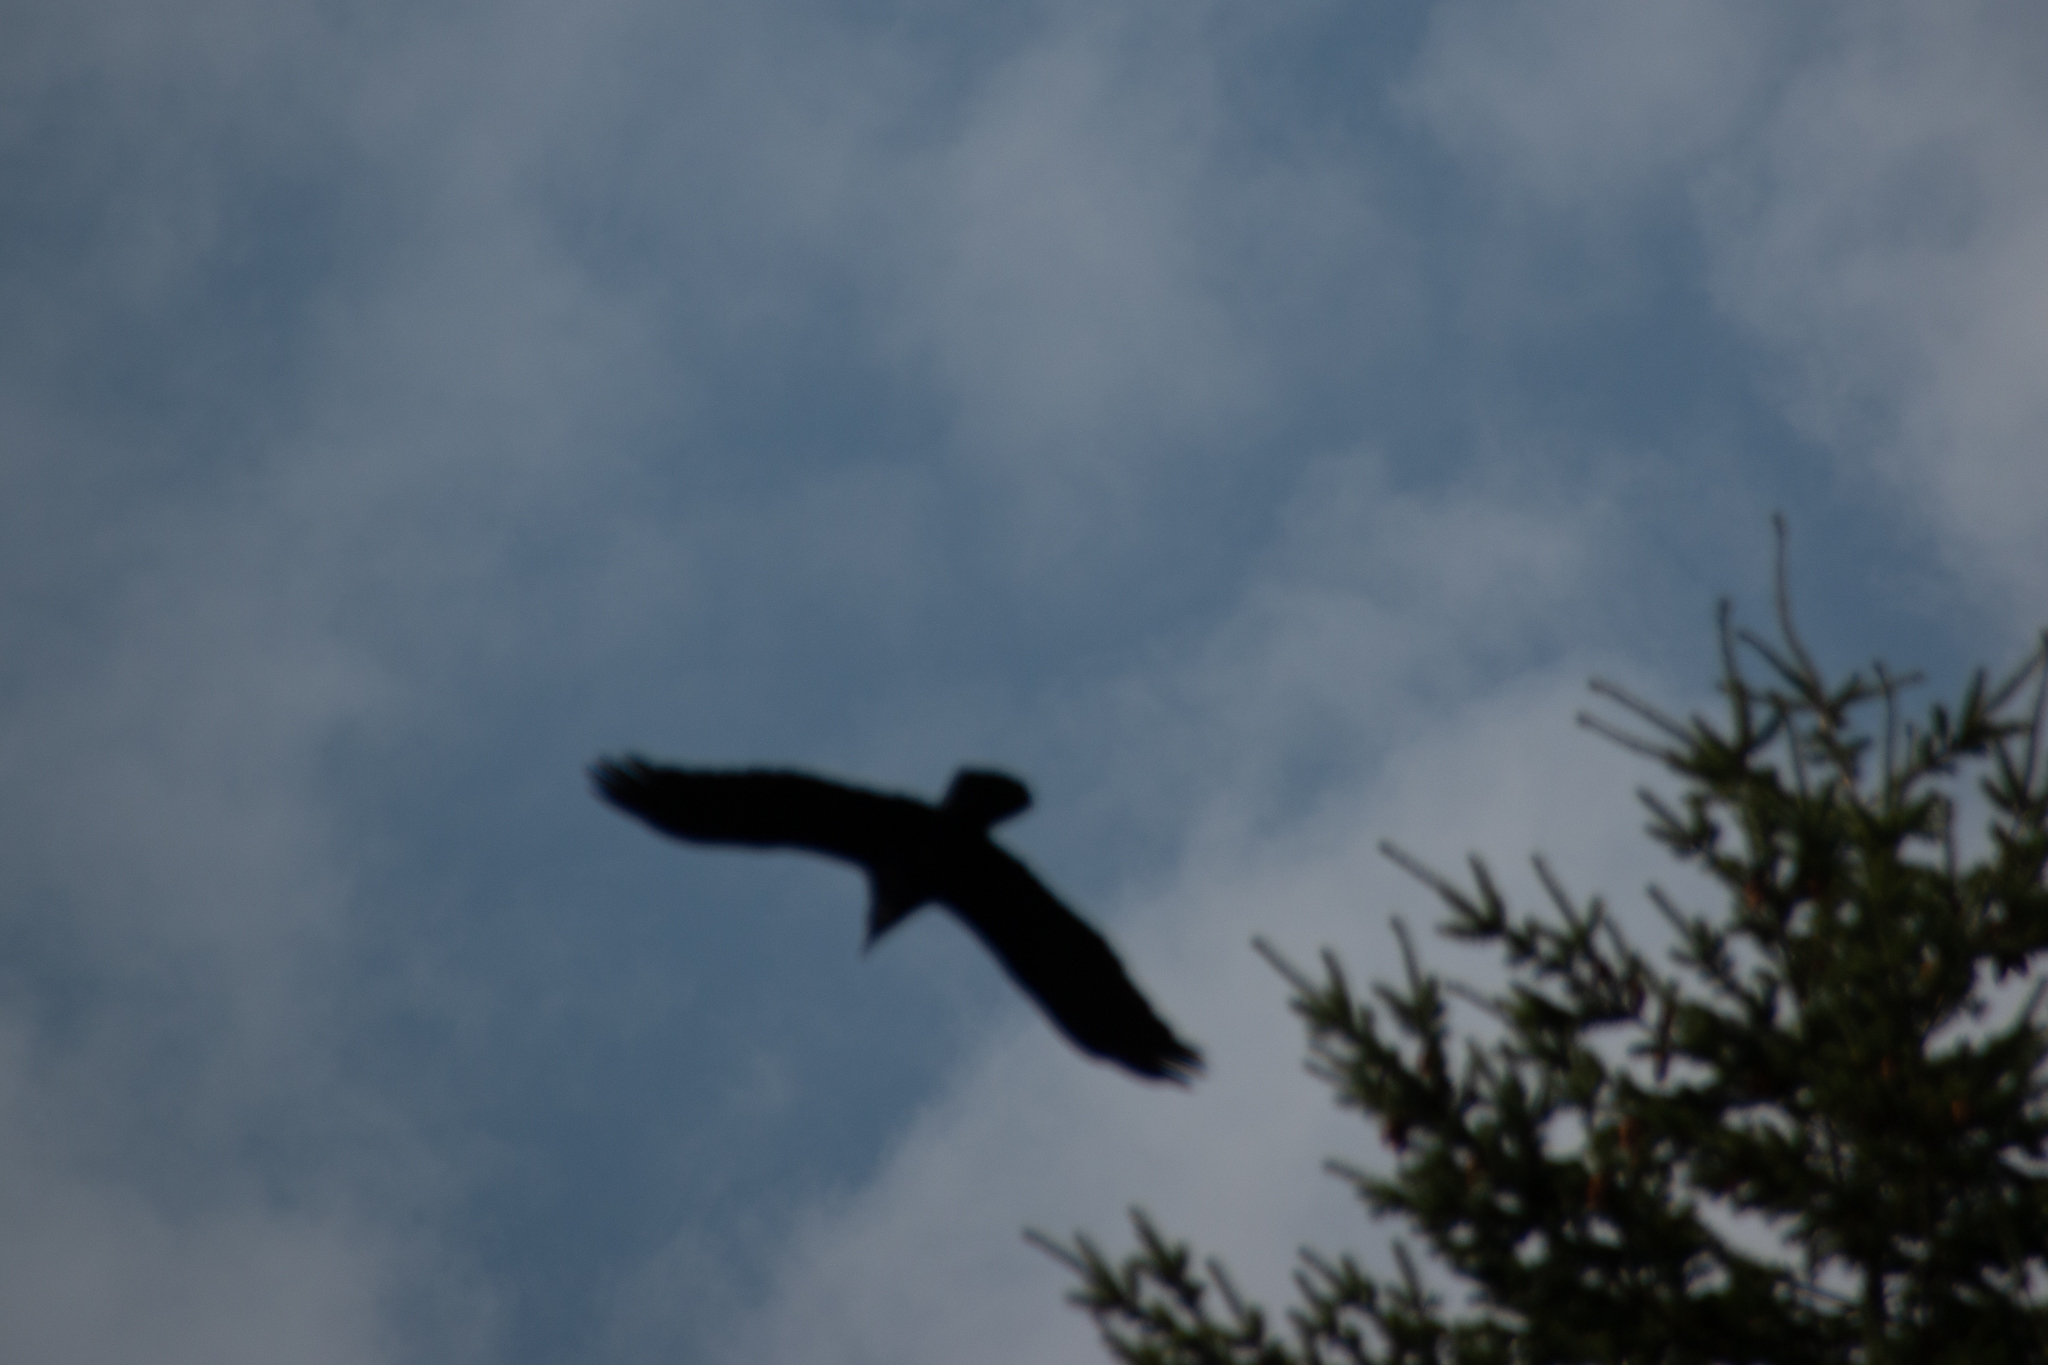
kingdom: Animalia
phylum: Chordata
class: Aves
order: Passeriformes
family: Corvidae
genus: Corvus
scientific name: Corvus corax
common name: Common raven
